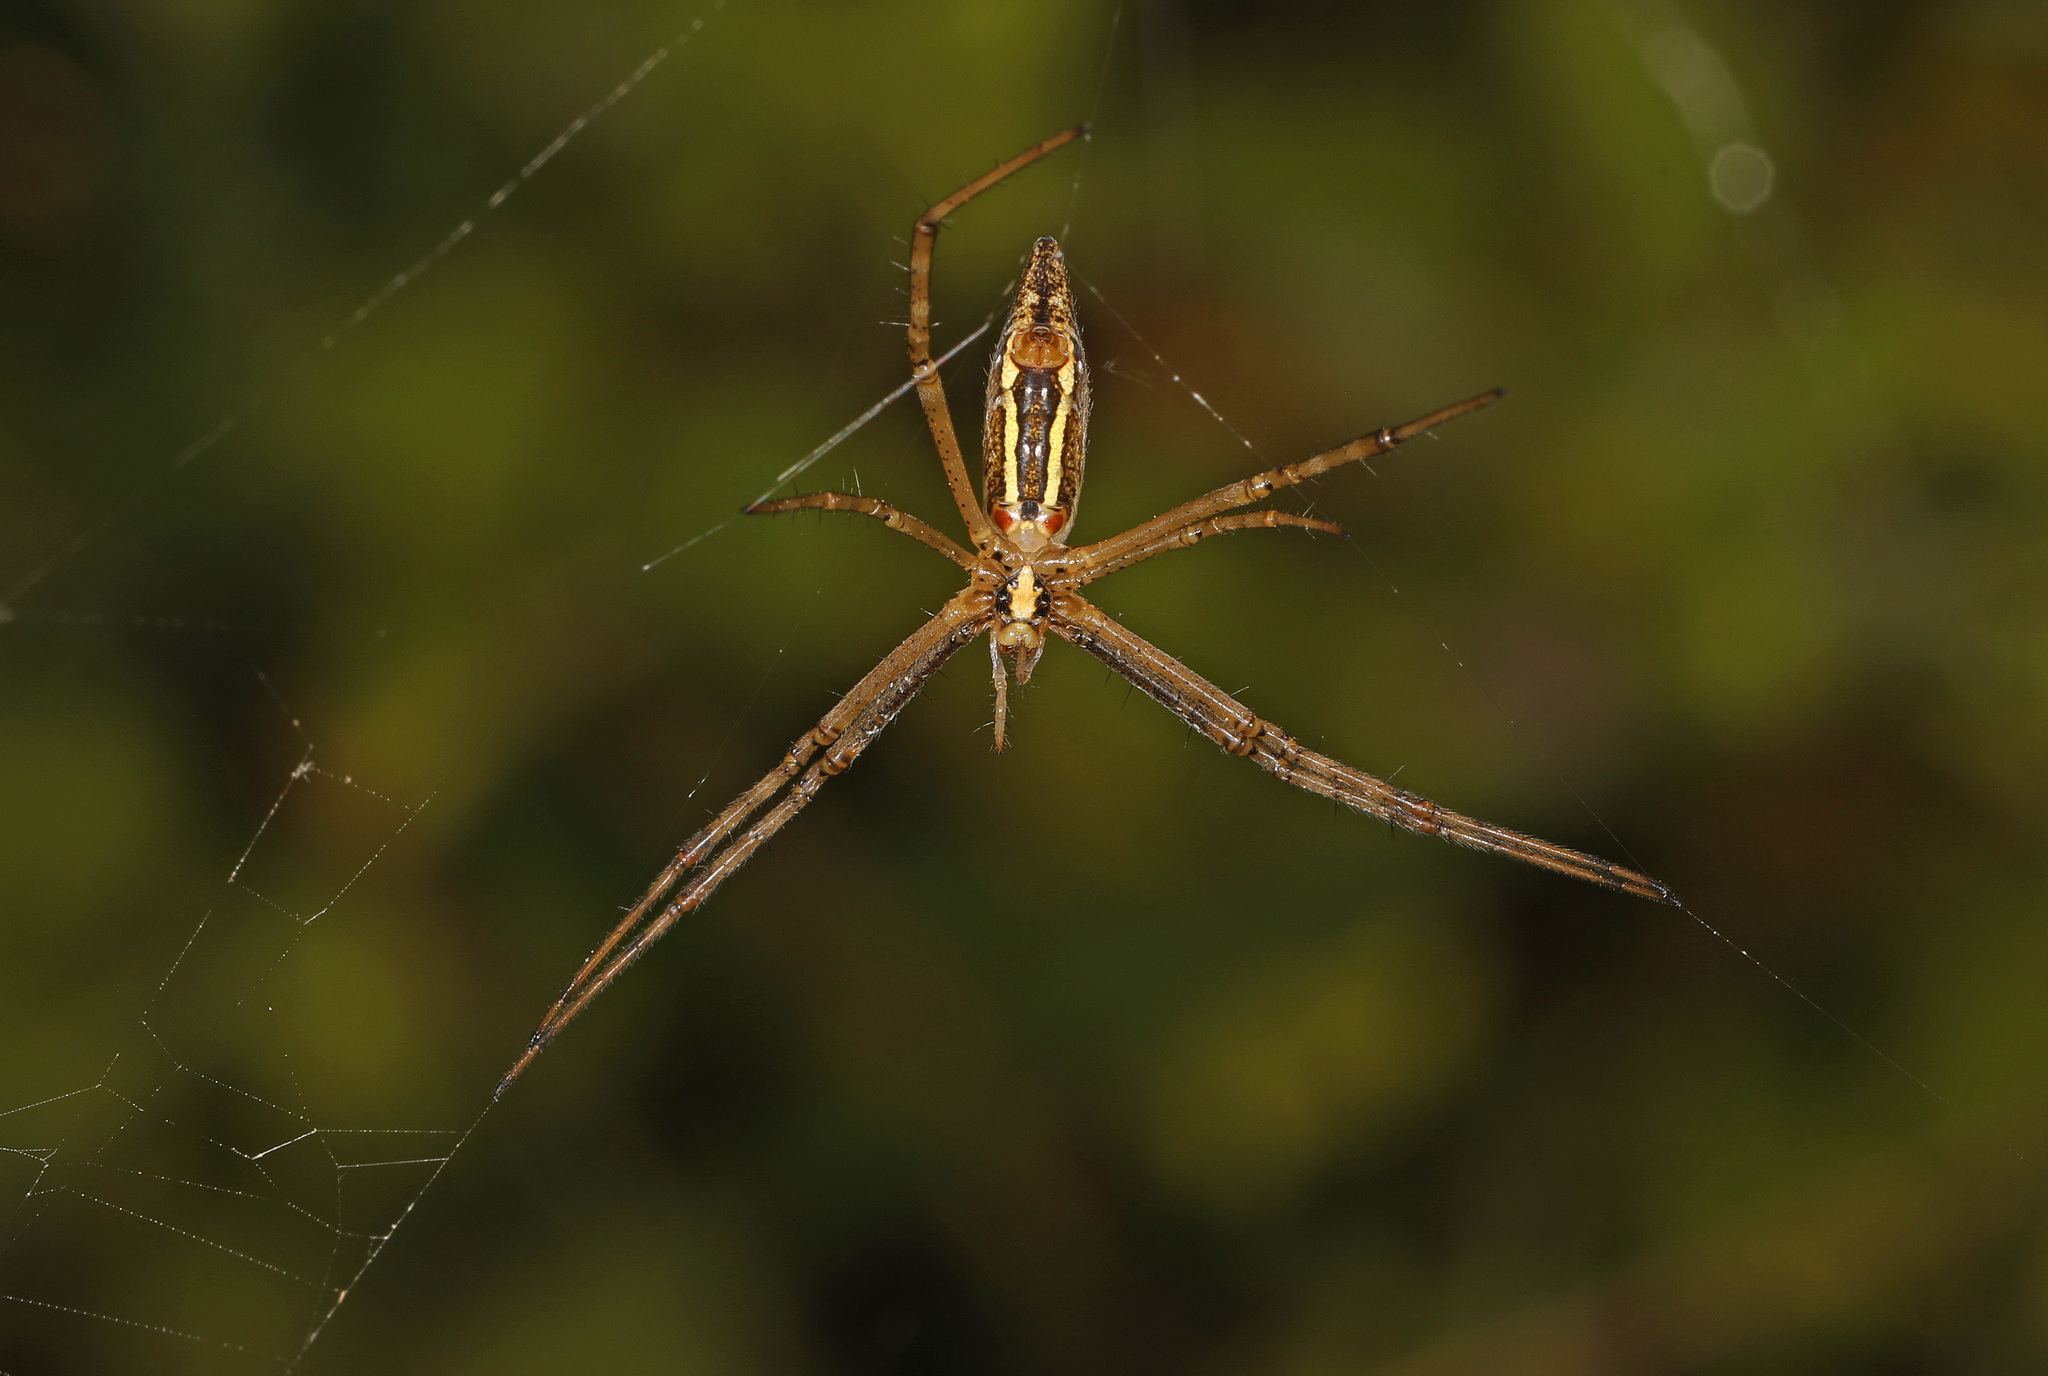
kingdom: Animalia
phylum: Arthropoda
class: Arachnida
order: Araneae
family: Araneidae
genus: Argiope
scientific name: Argiope trifasciata
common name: Banded garden spider
